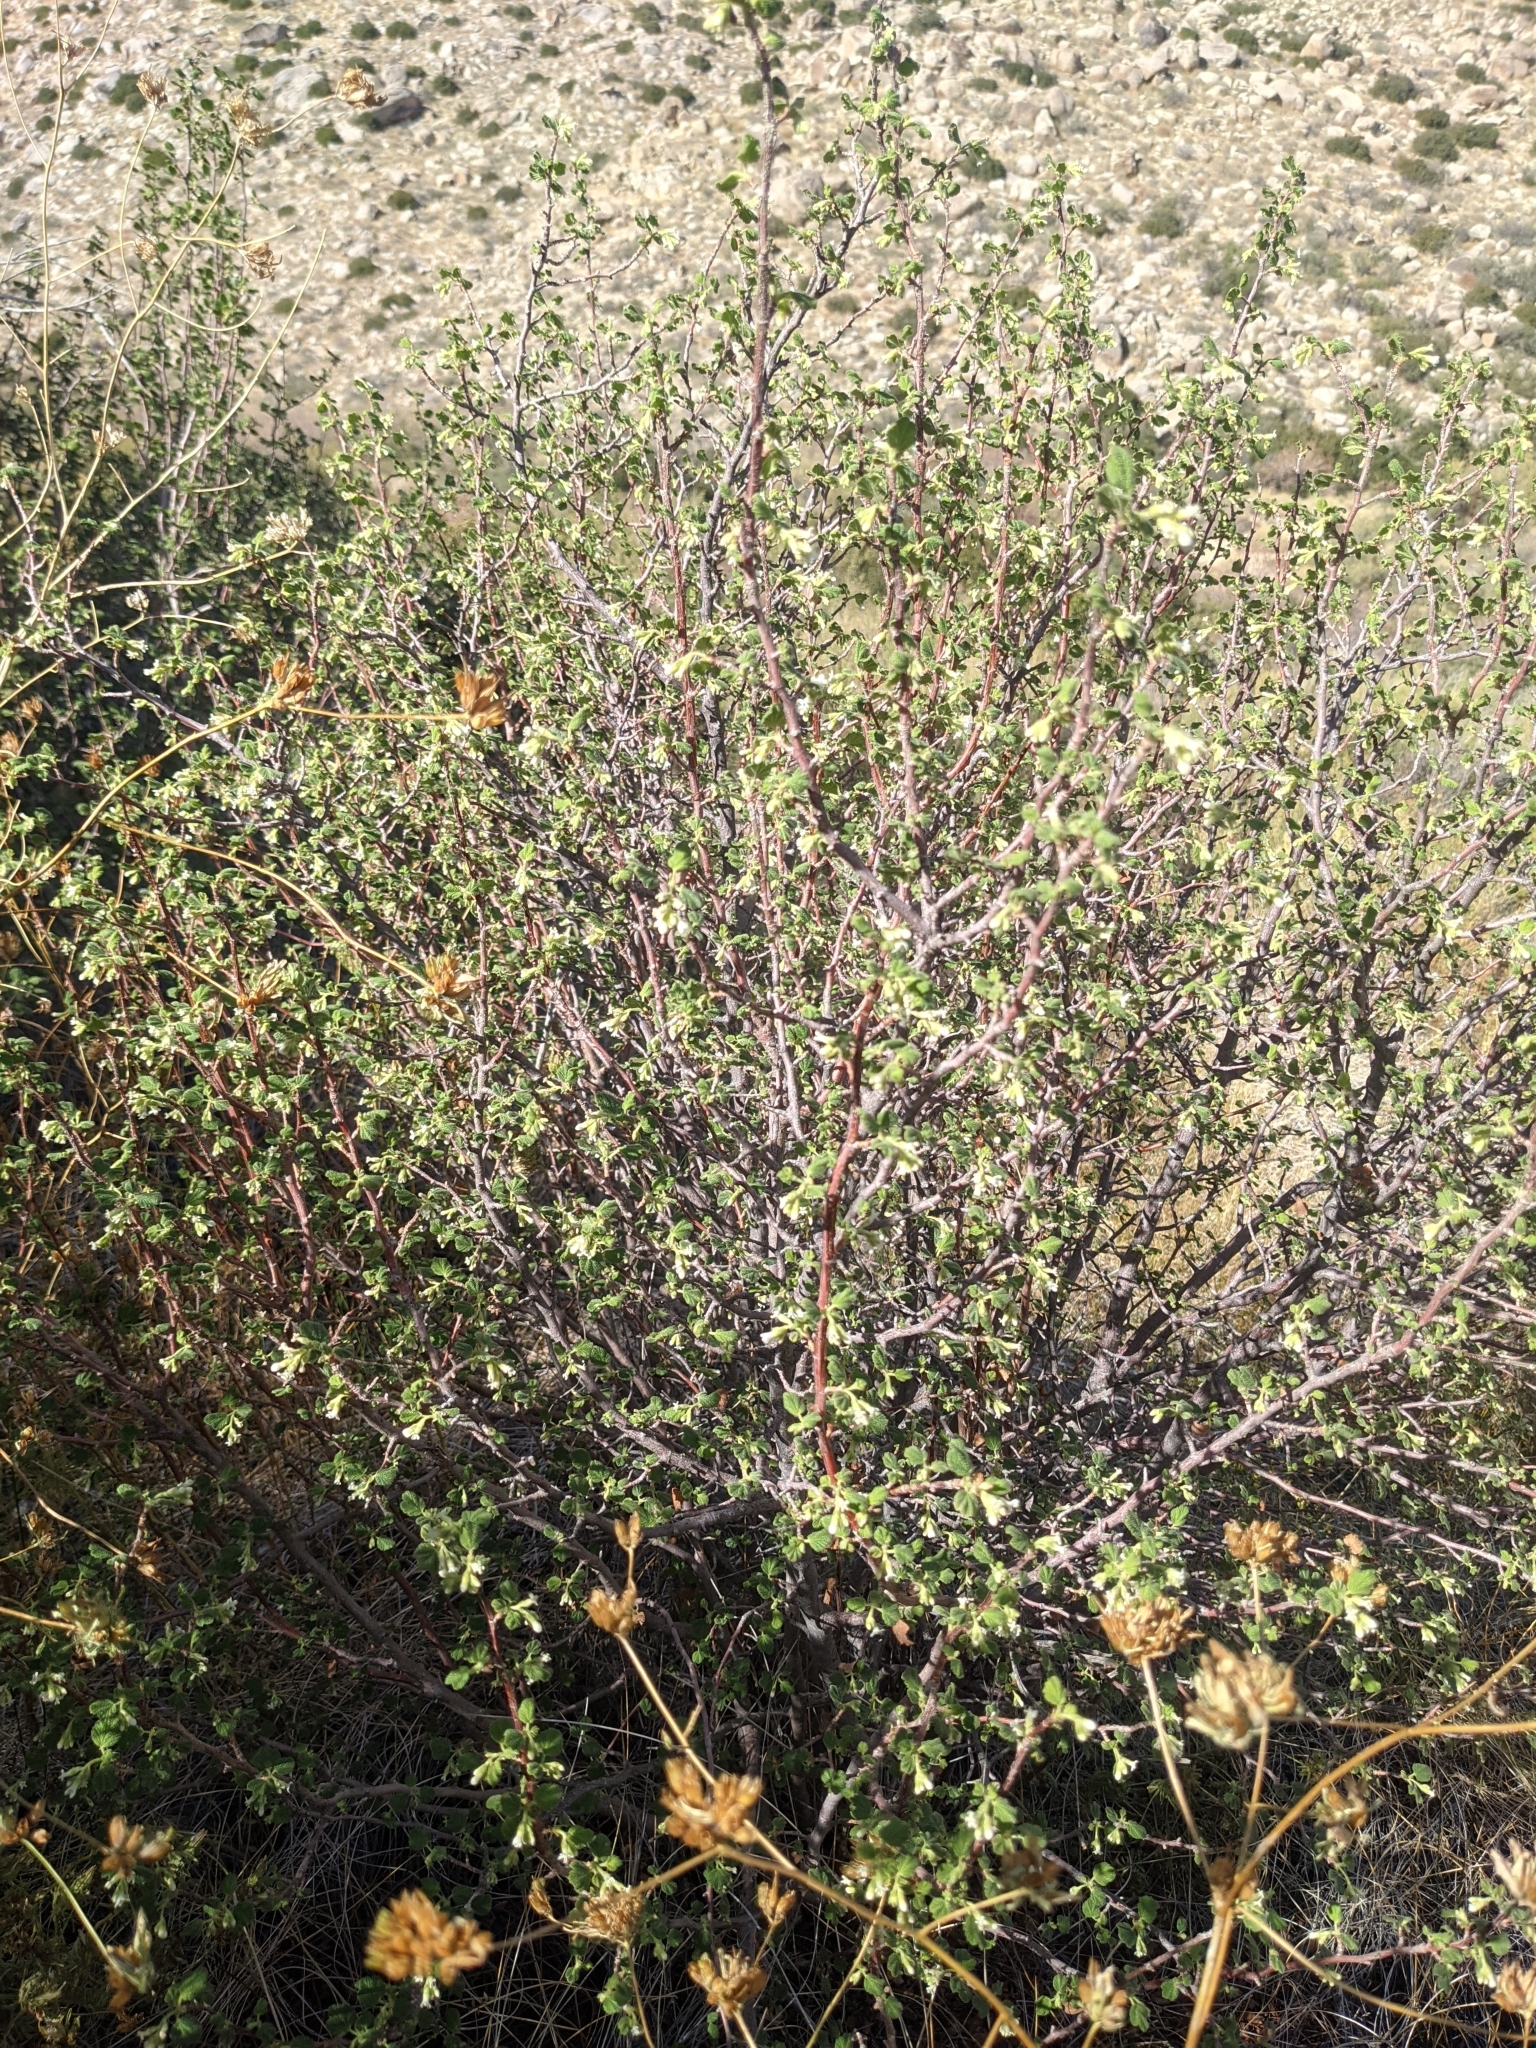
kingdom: Plantae
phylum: Tracheophyta
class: Magnoliopsida
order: Saxifragales
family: Grossulariaceae
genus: Ribes
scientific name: Ribes indecorum
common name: White-flower currant
